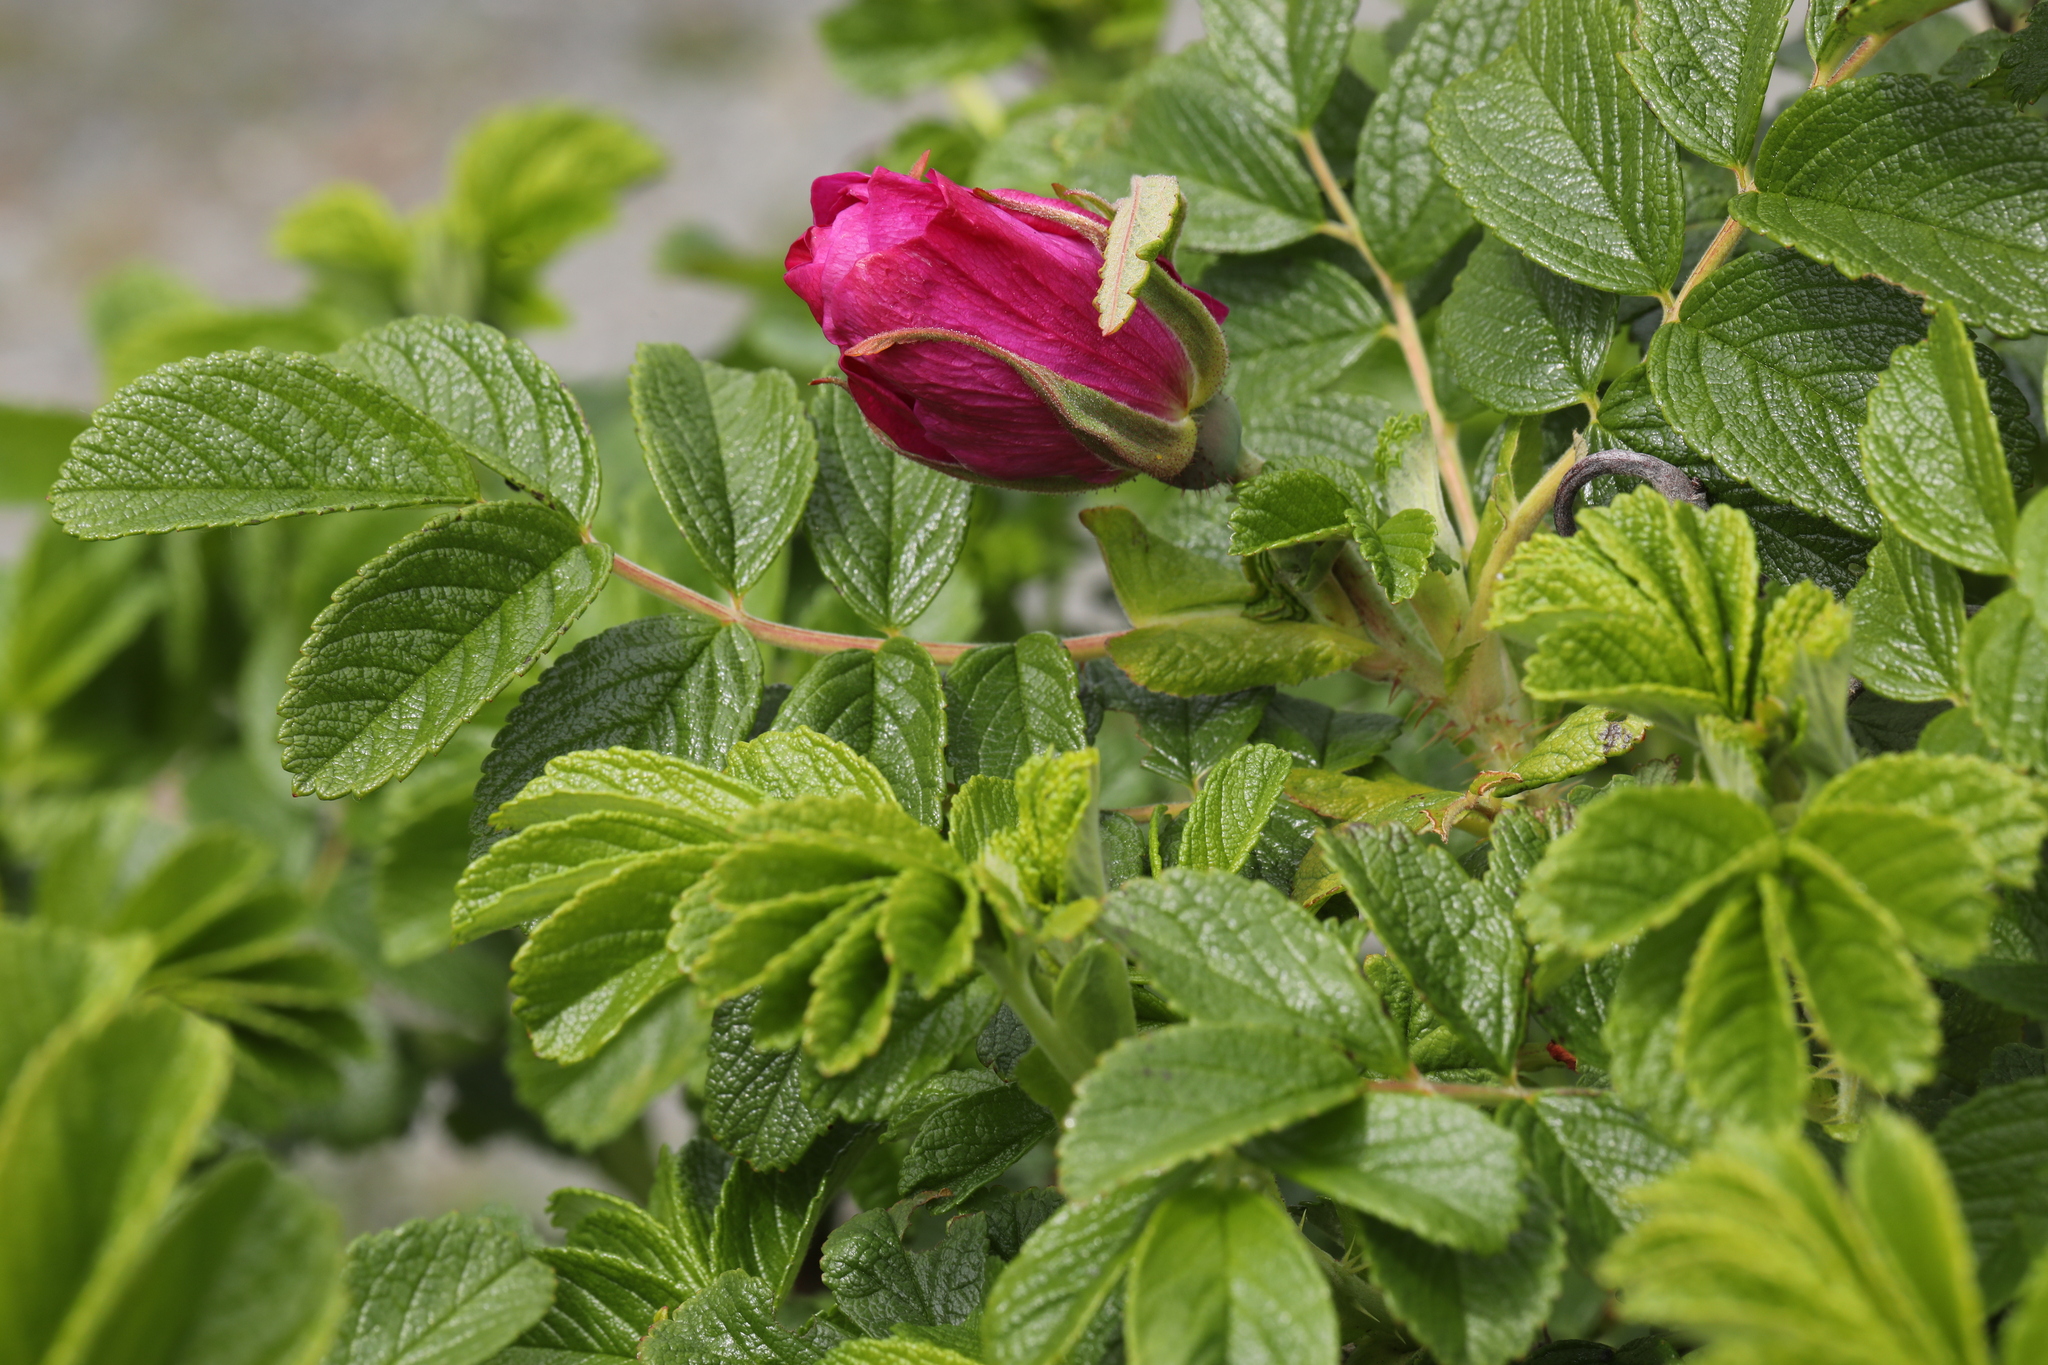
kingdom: Plantae
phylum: Tracheophyta
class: Magnoliopsida
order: Rosales
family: Rosaceae
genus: Rosa
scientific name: Rosa rugosa
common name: Japanese rose
